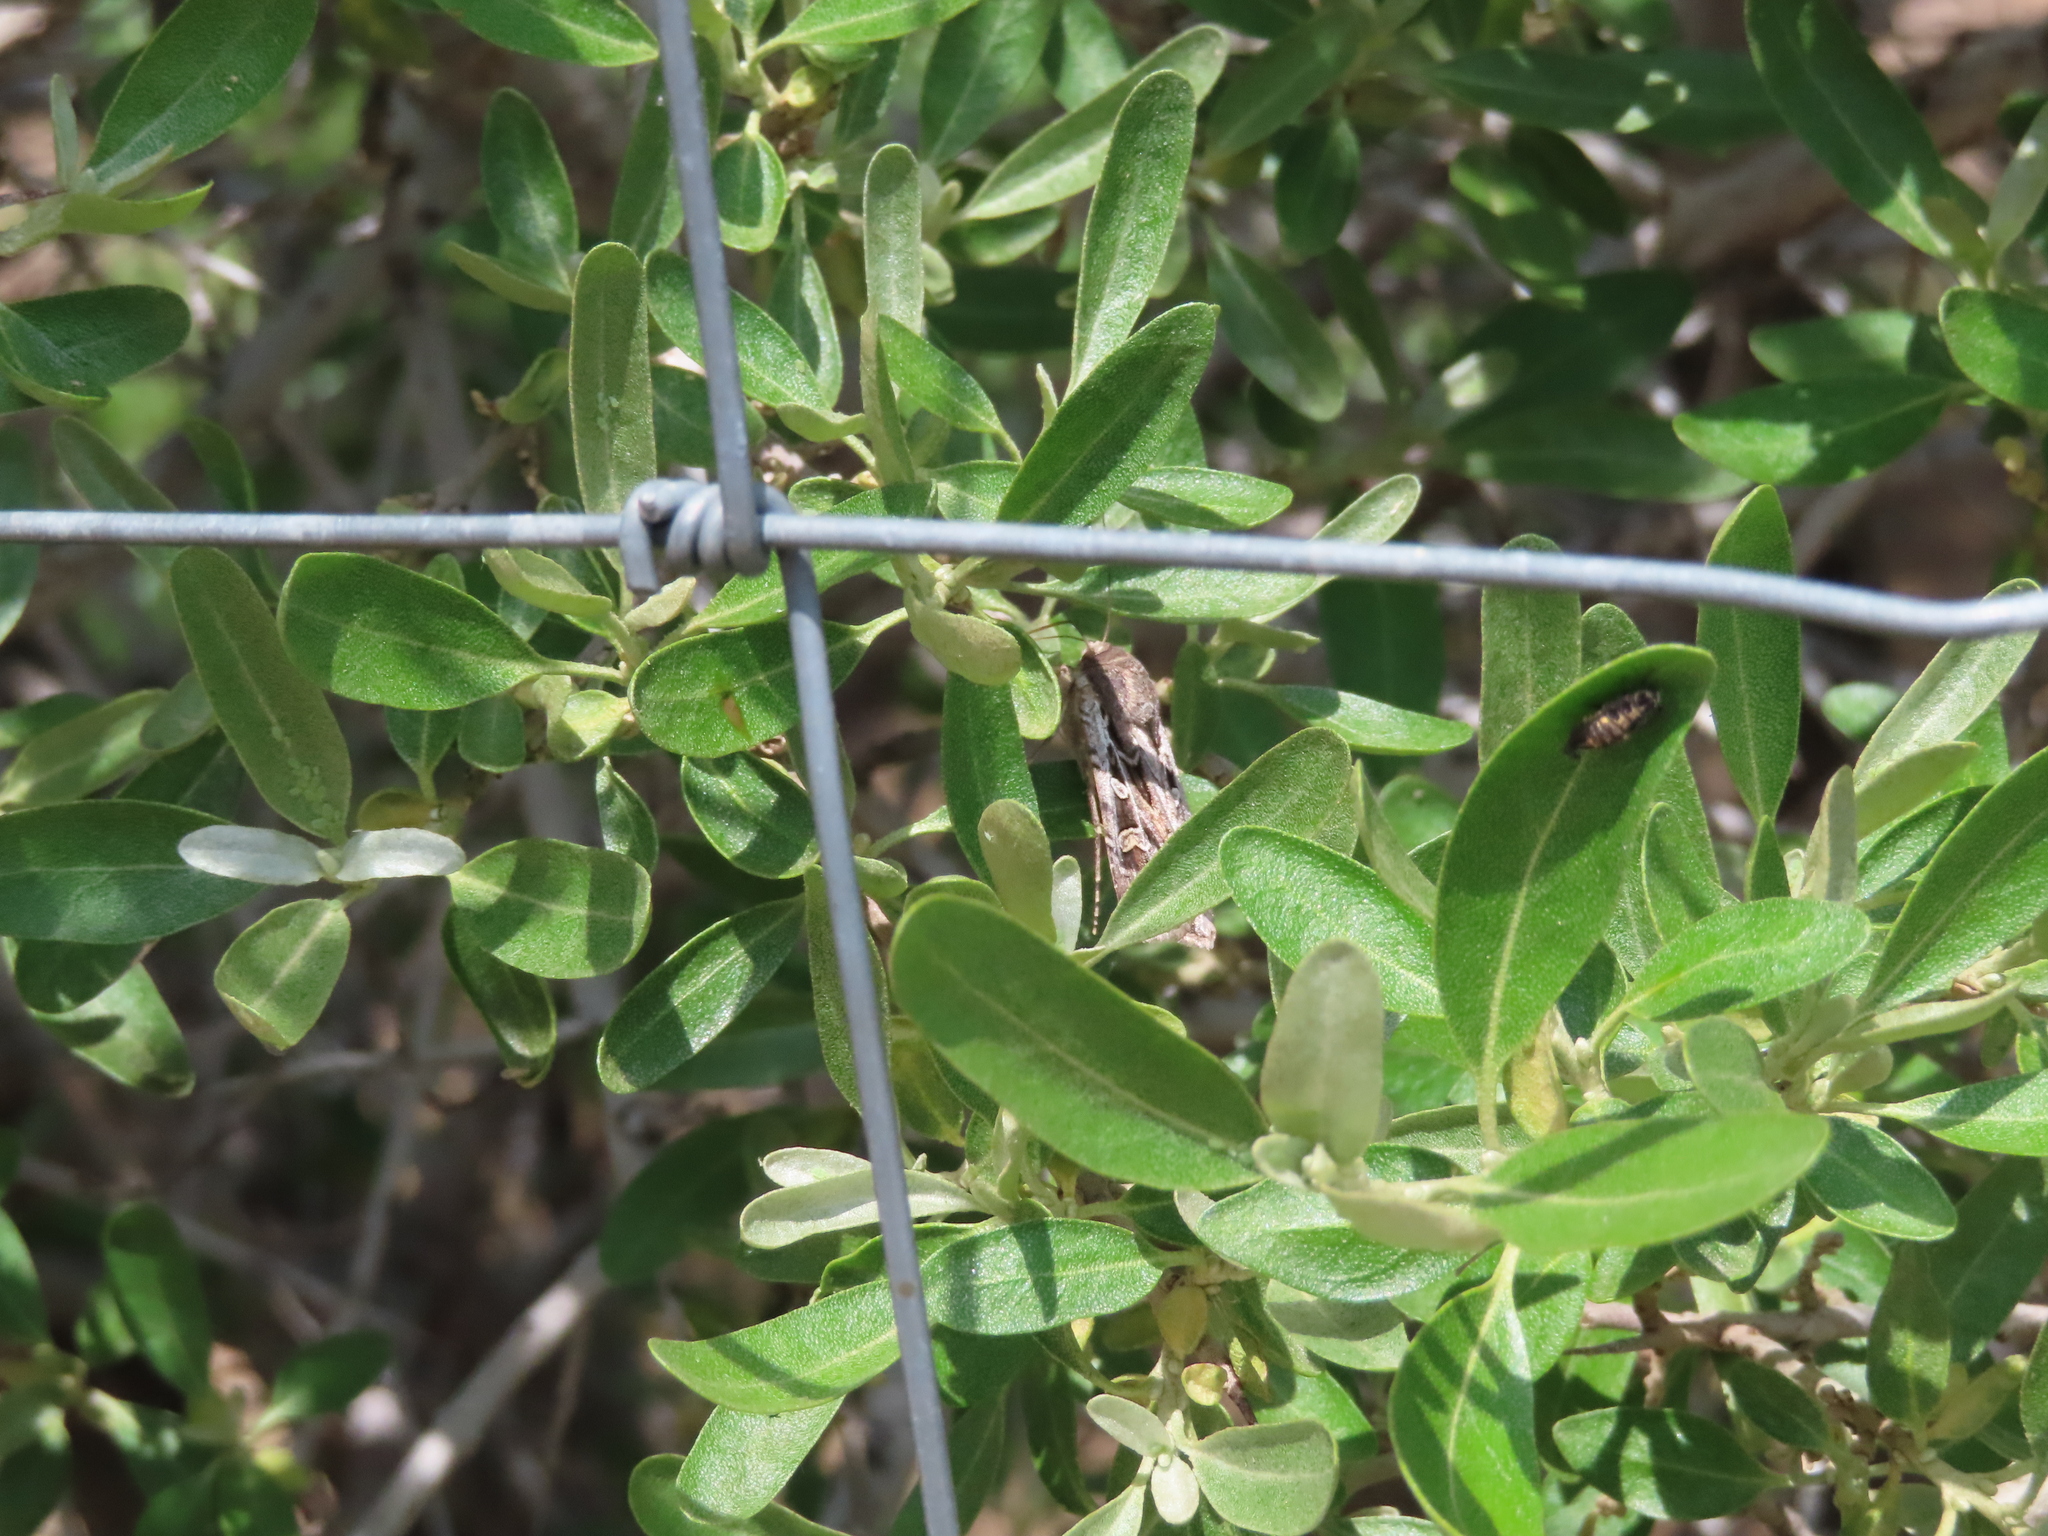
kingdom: Animalia
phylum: Arthropoda
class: Insecta
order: Lepidoptera
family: Noctuidae
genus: Euxoa
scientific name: Euxoa auxiliaris
